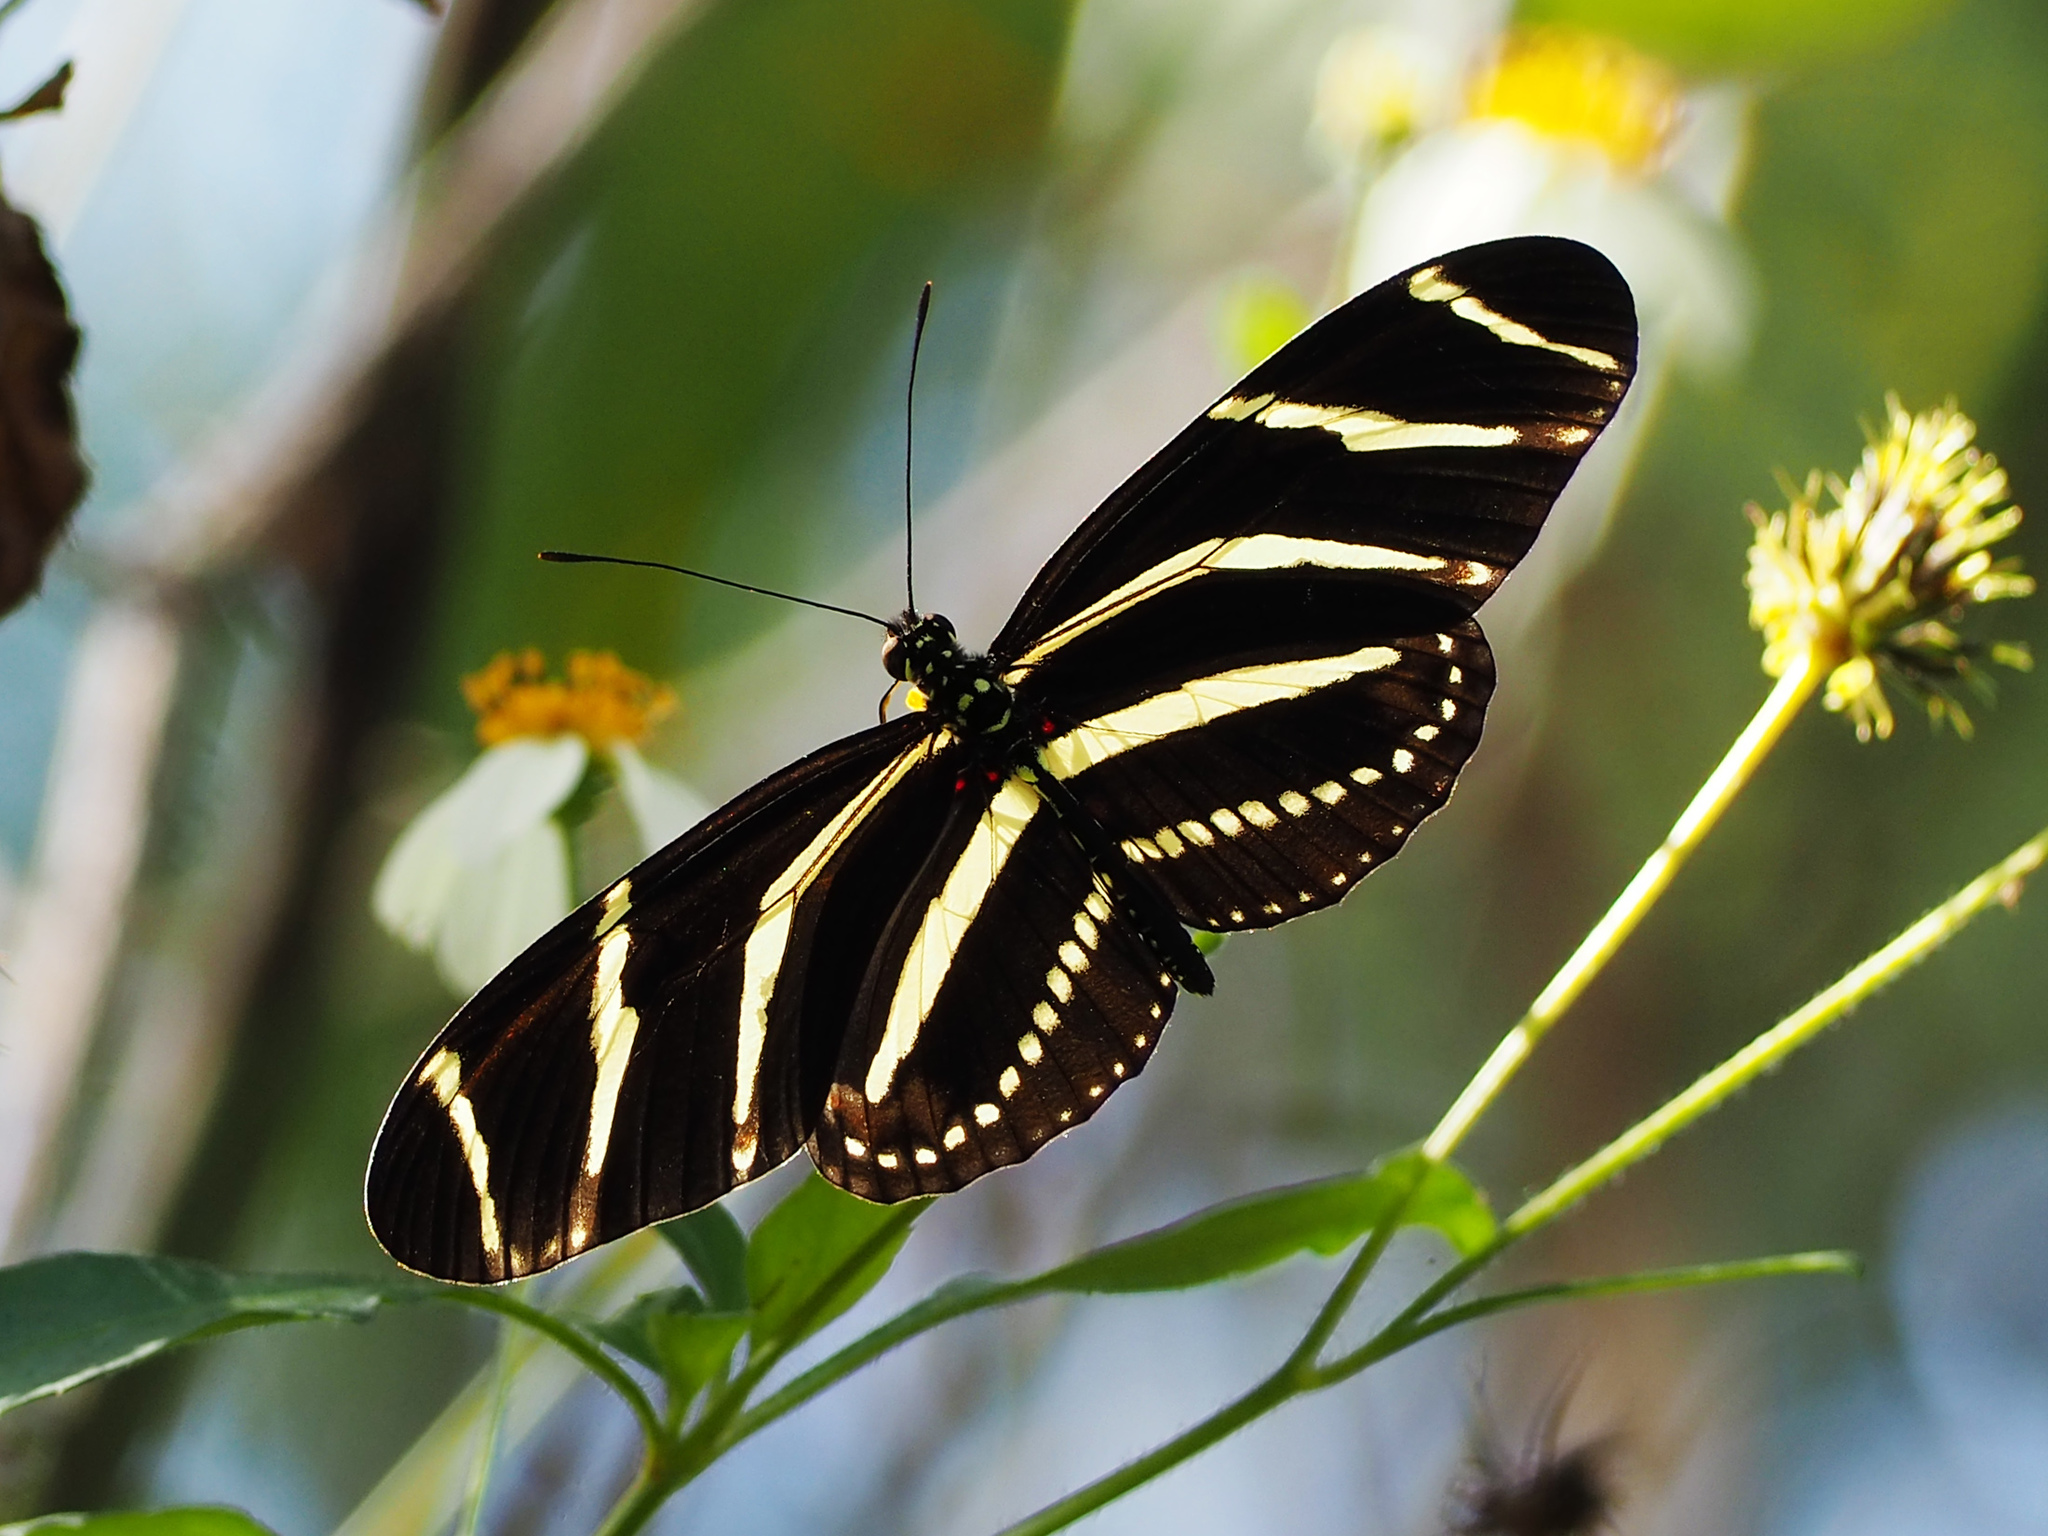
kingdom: Animalia
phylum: Arthropoda
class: Insecta
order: Lepidoptera
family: Nymphalidae
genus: Heliconius
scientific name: Heliconius charithonia
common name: Zebra long wing
